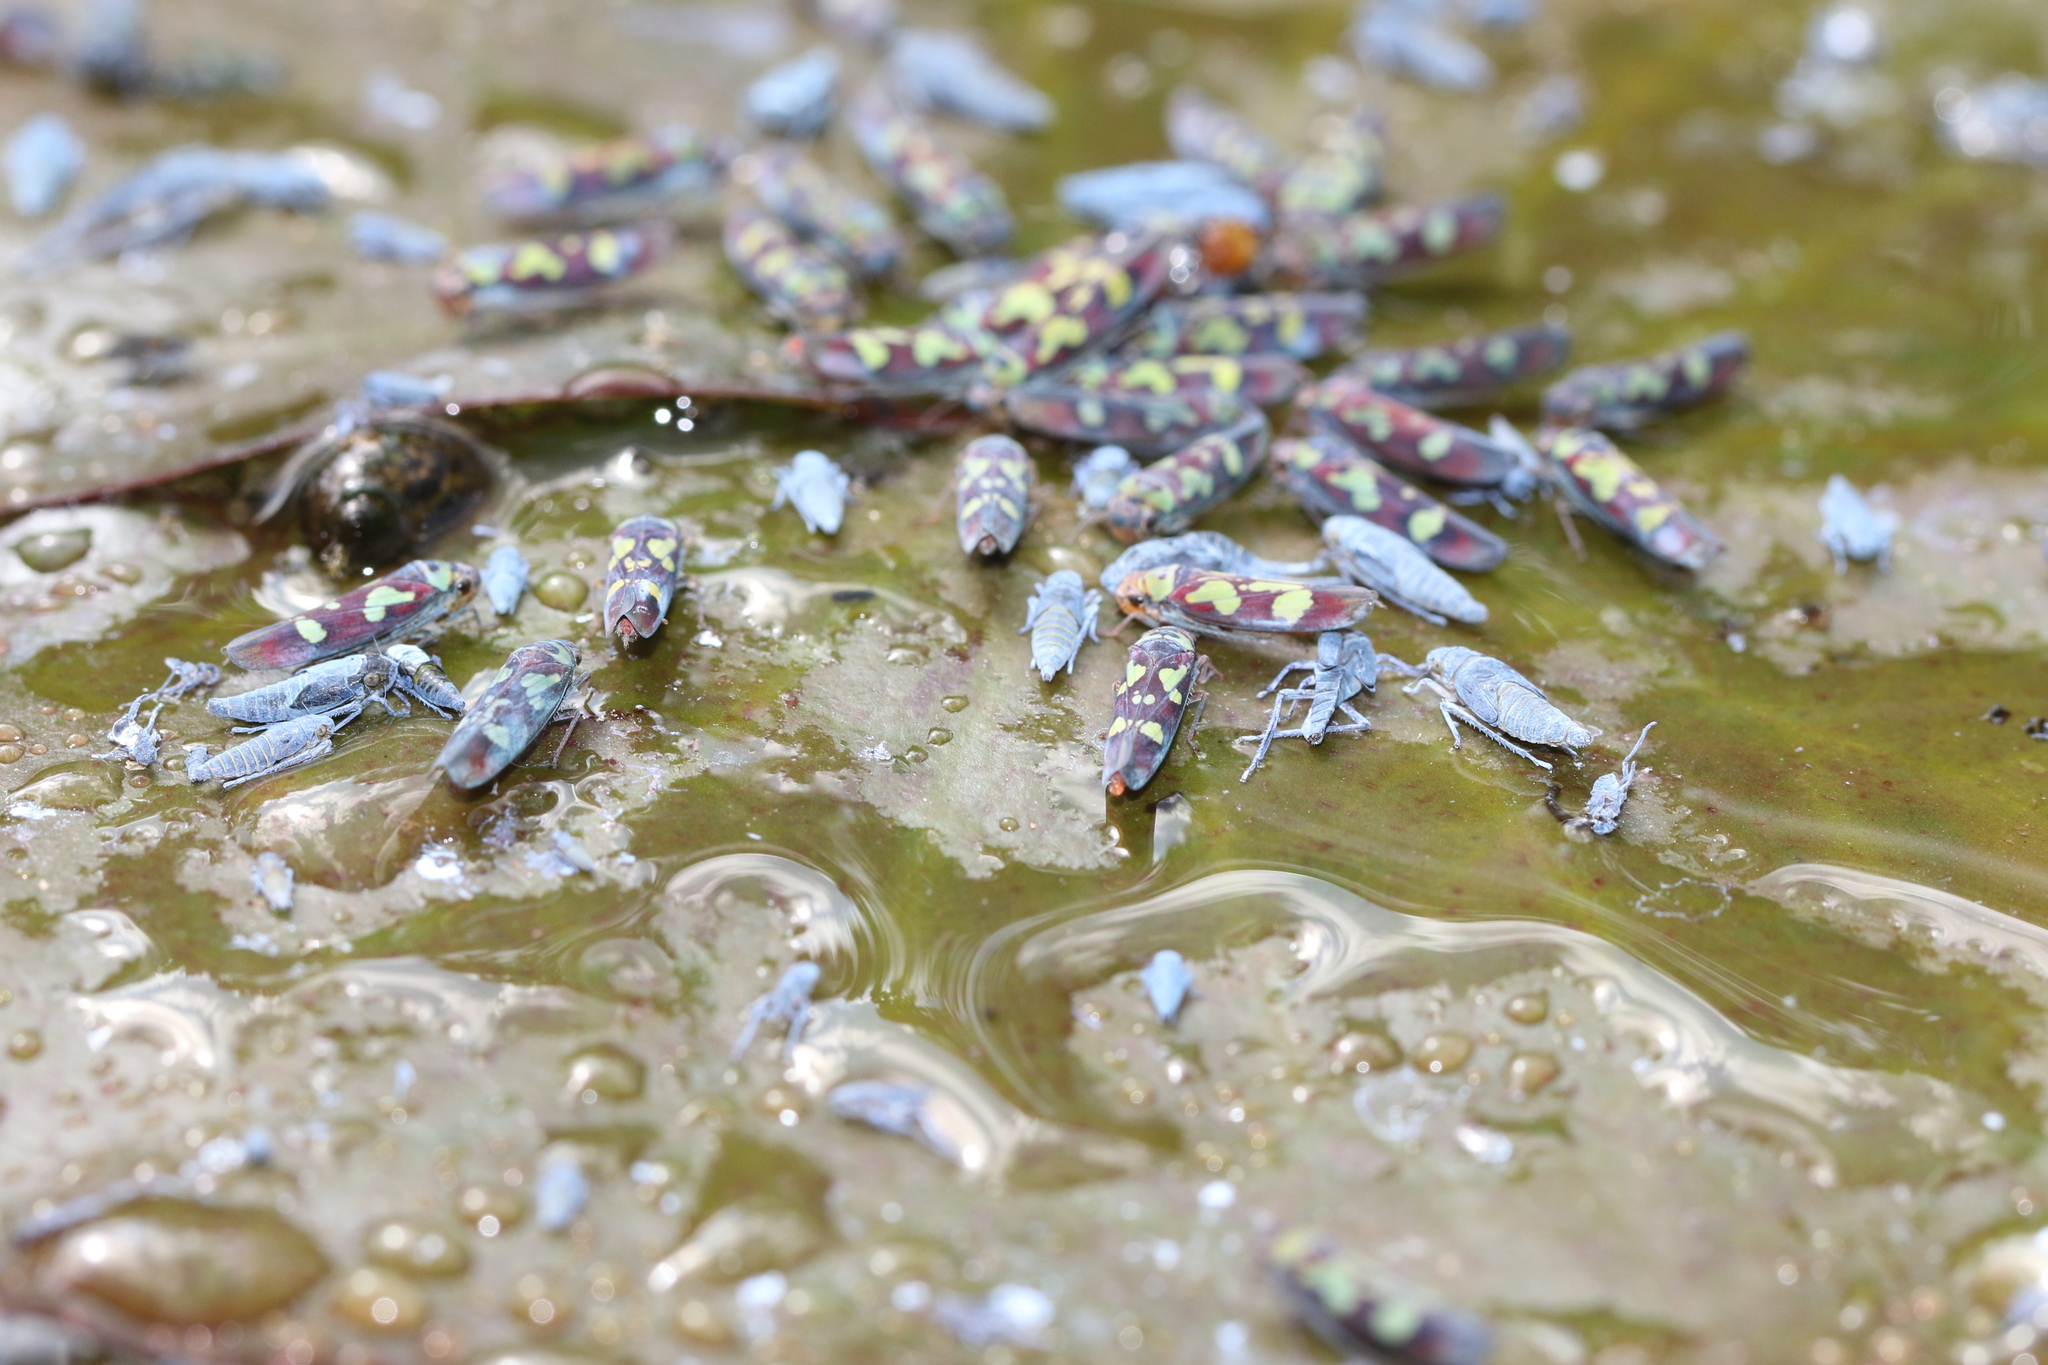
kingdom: Animalia
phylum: Arthropoda
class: Insecta
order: Hemiptera
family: Cicadellidae
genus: Torresabela
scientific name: Torresabela fairmairei
